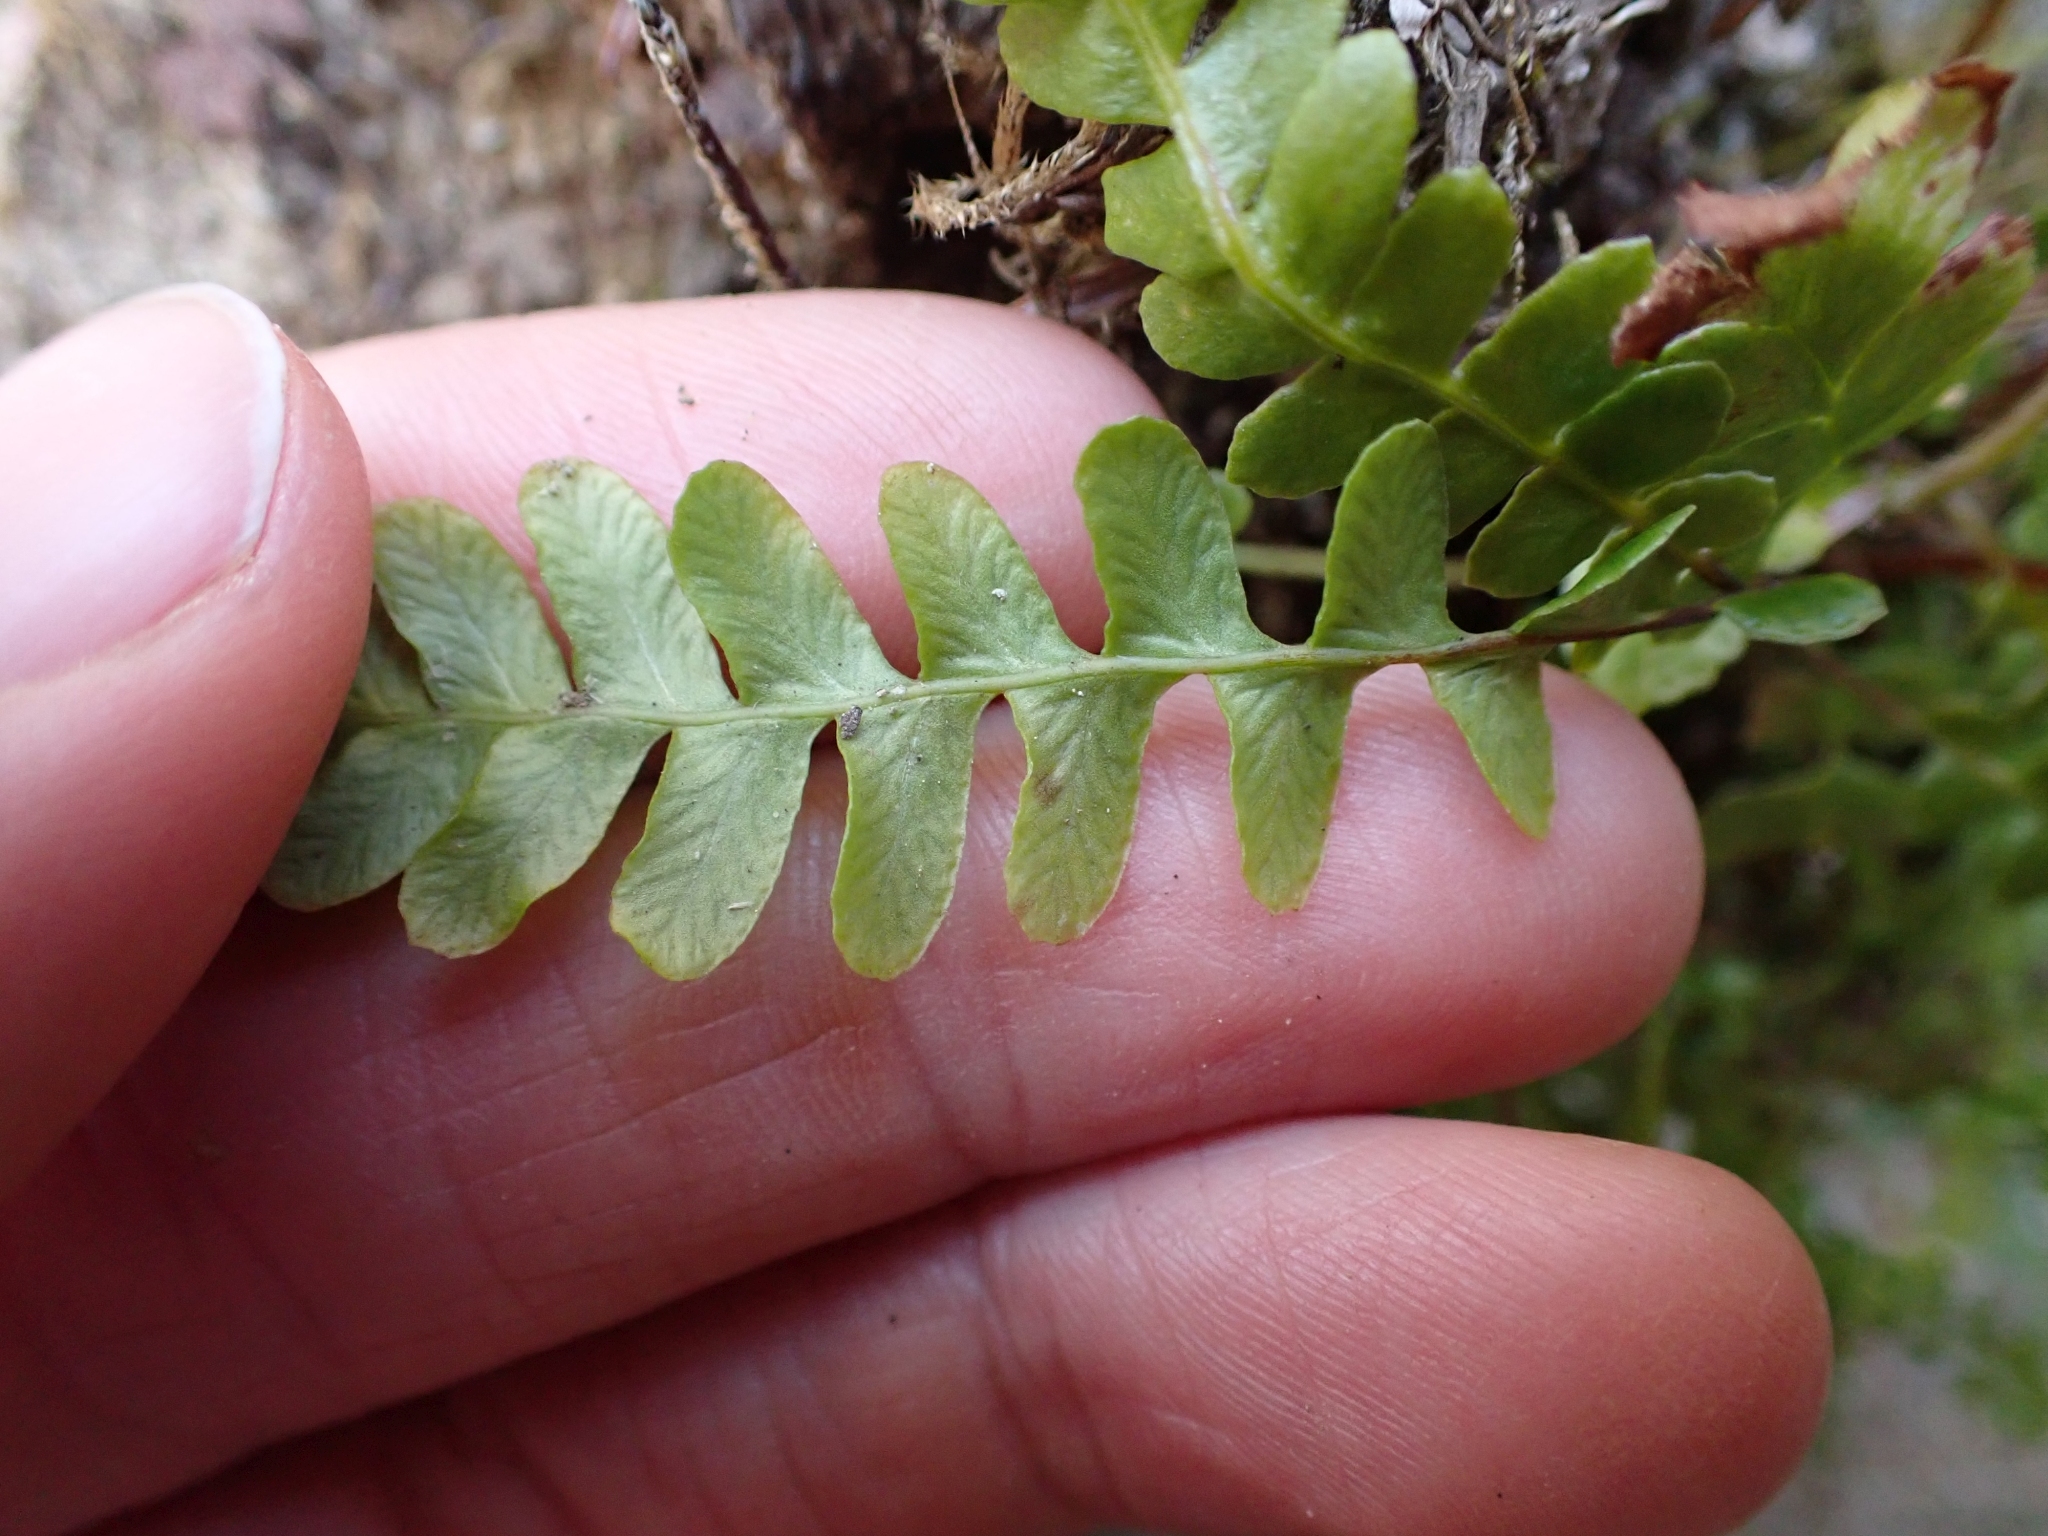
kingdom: Plantae
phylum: Tracheophyta
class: Polypodiopsida
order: Polypodiales
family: Blechnaceae
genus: Struthiopteris
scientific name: Struthiopteris spicant
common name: Deer fern
